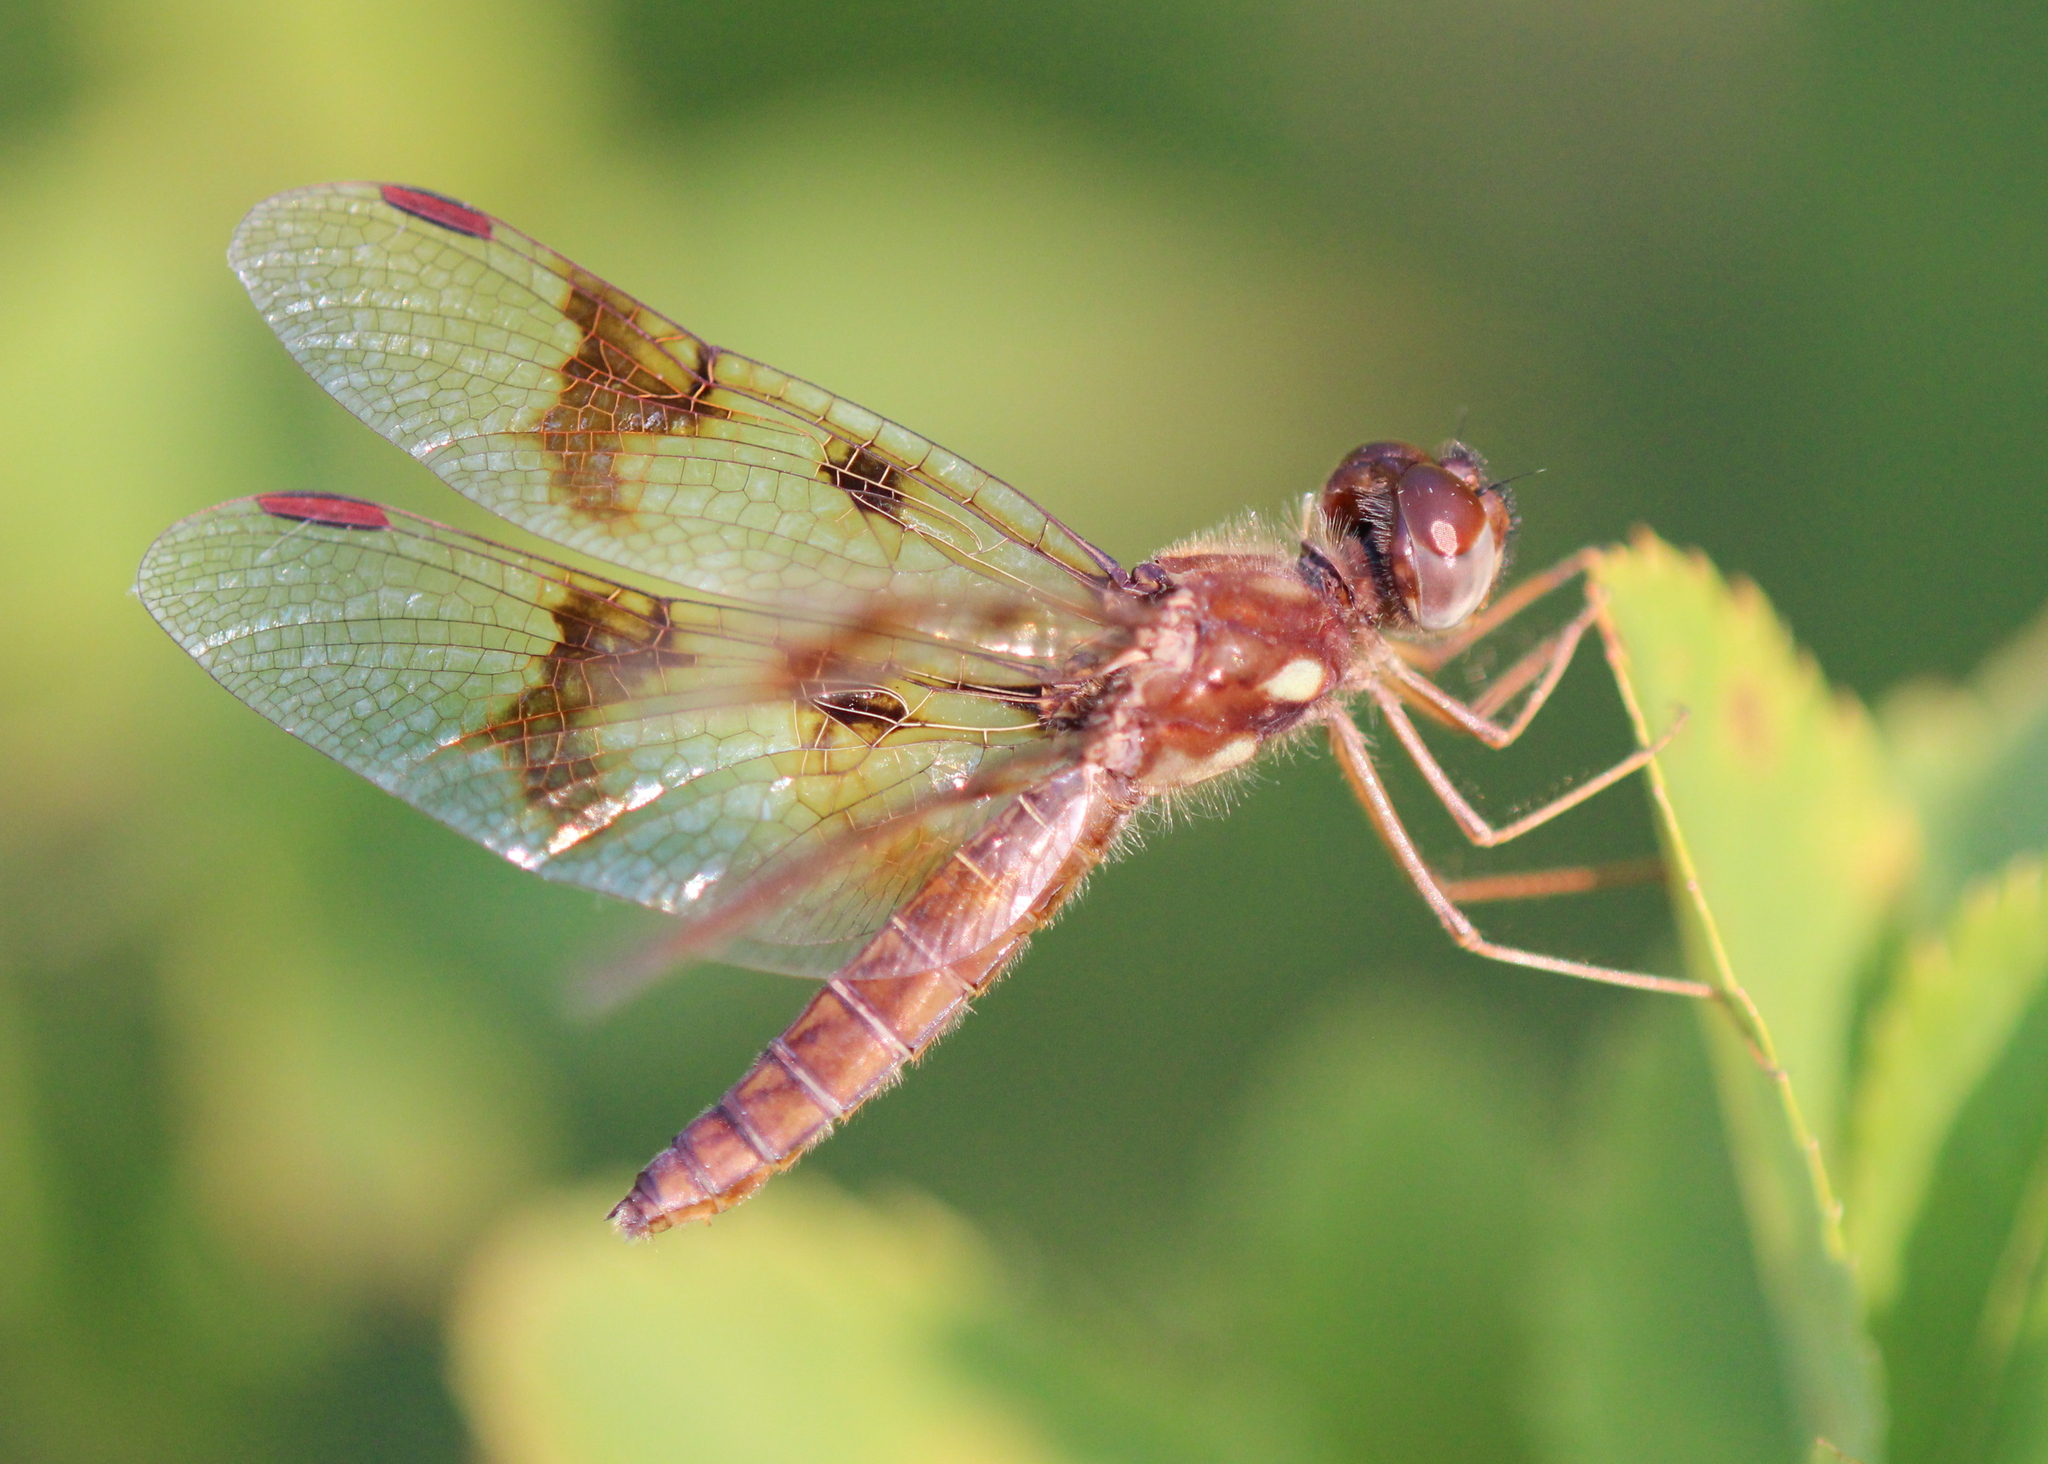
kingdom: Animalia
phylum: Arthropoda
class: Insecta
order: Odonata
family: Libellulidae
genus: Perithemis
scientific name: Perithemis tenera
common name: Eastern amberwing
